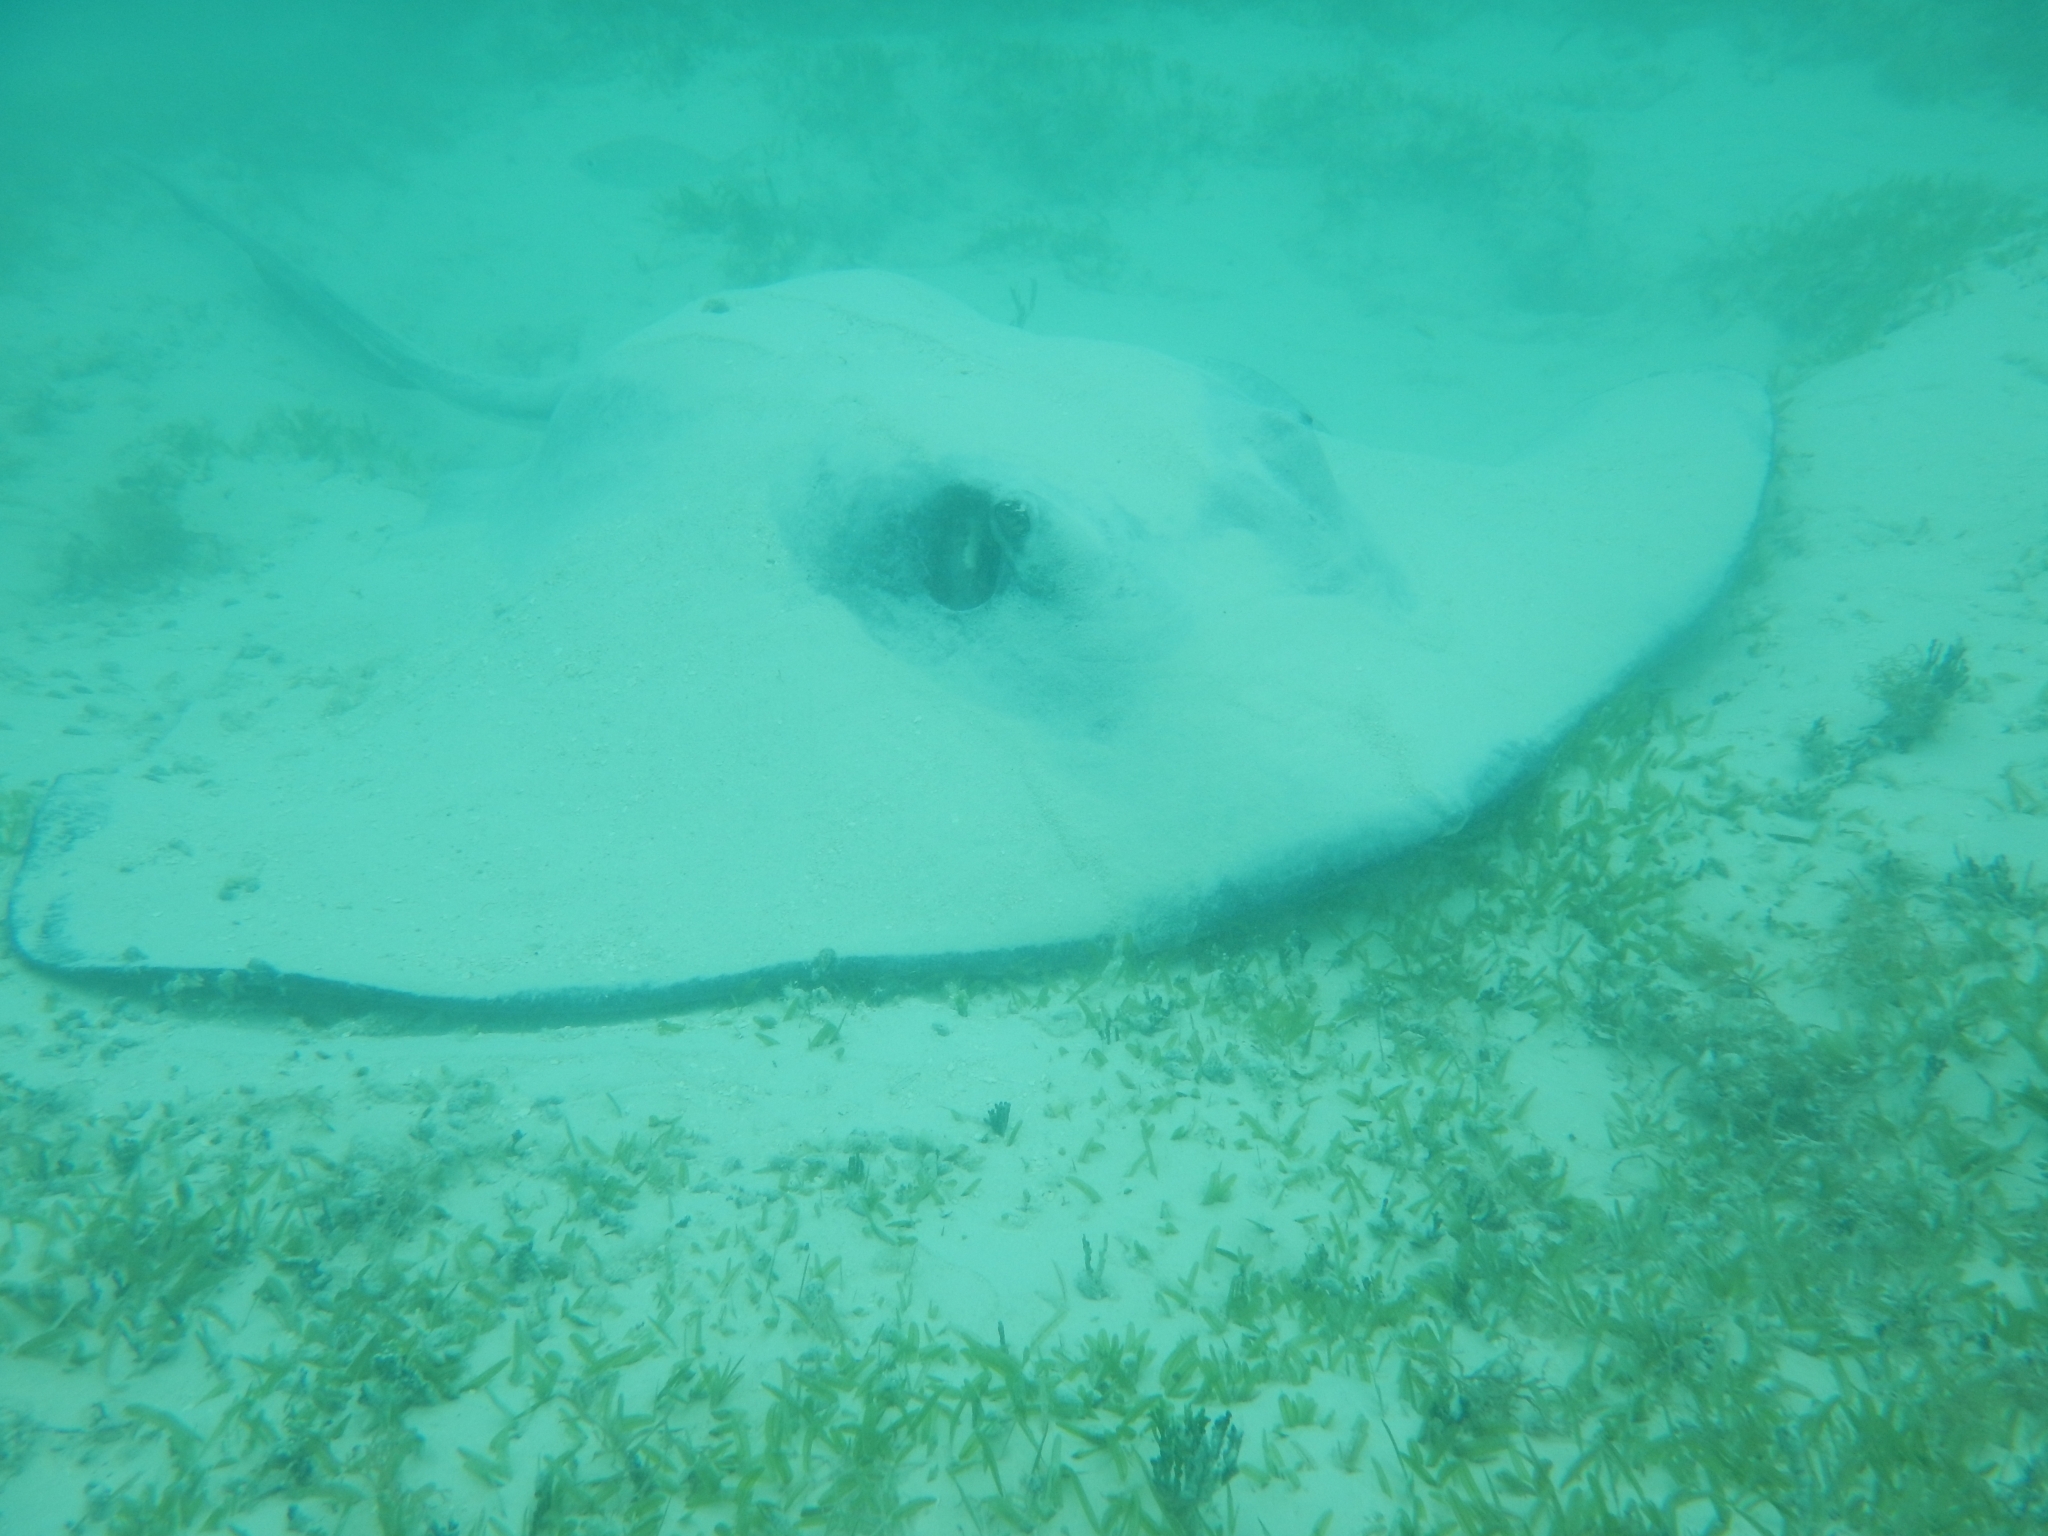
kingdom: Animalia
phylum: Chordata
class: Elasmobranchii
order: Myliobatiformes
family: Dasyatidae
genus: Hypanus
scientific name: Hypanus americanus
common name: Southern stingray
